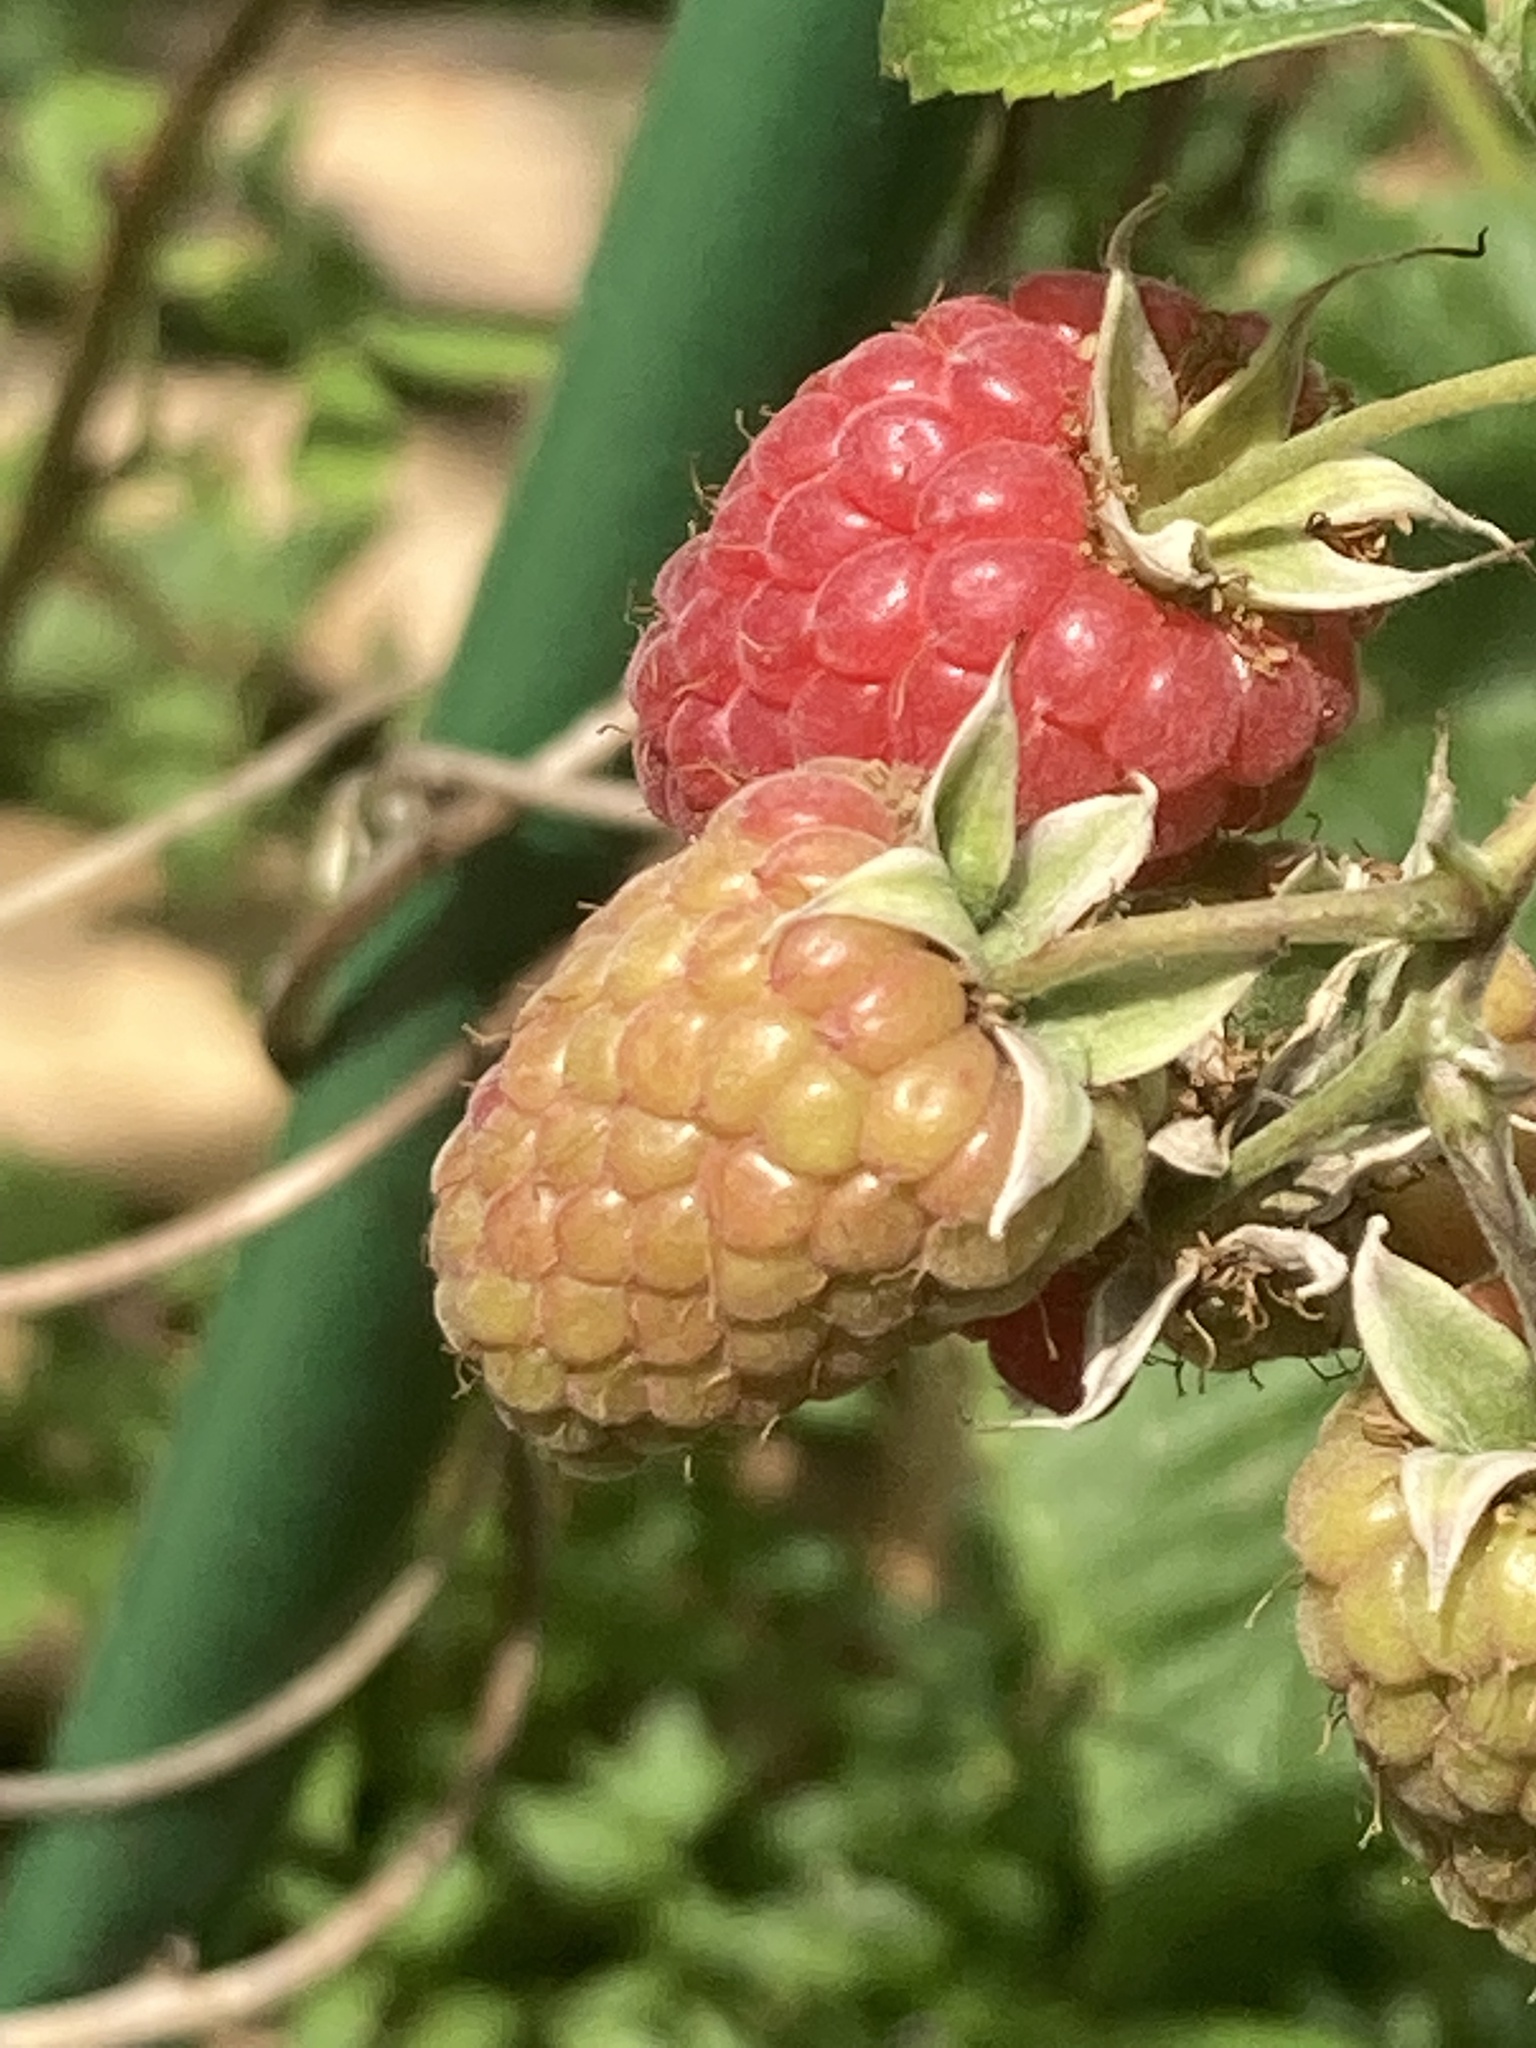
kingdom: Plantae
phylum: Tracheophyta
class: Magnoliopsida
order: Rosales
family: Rosaceae
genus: Rubus
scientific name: Rubus idaeus
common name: Raspberry
